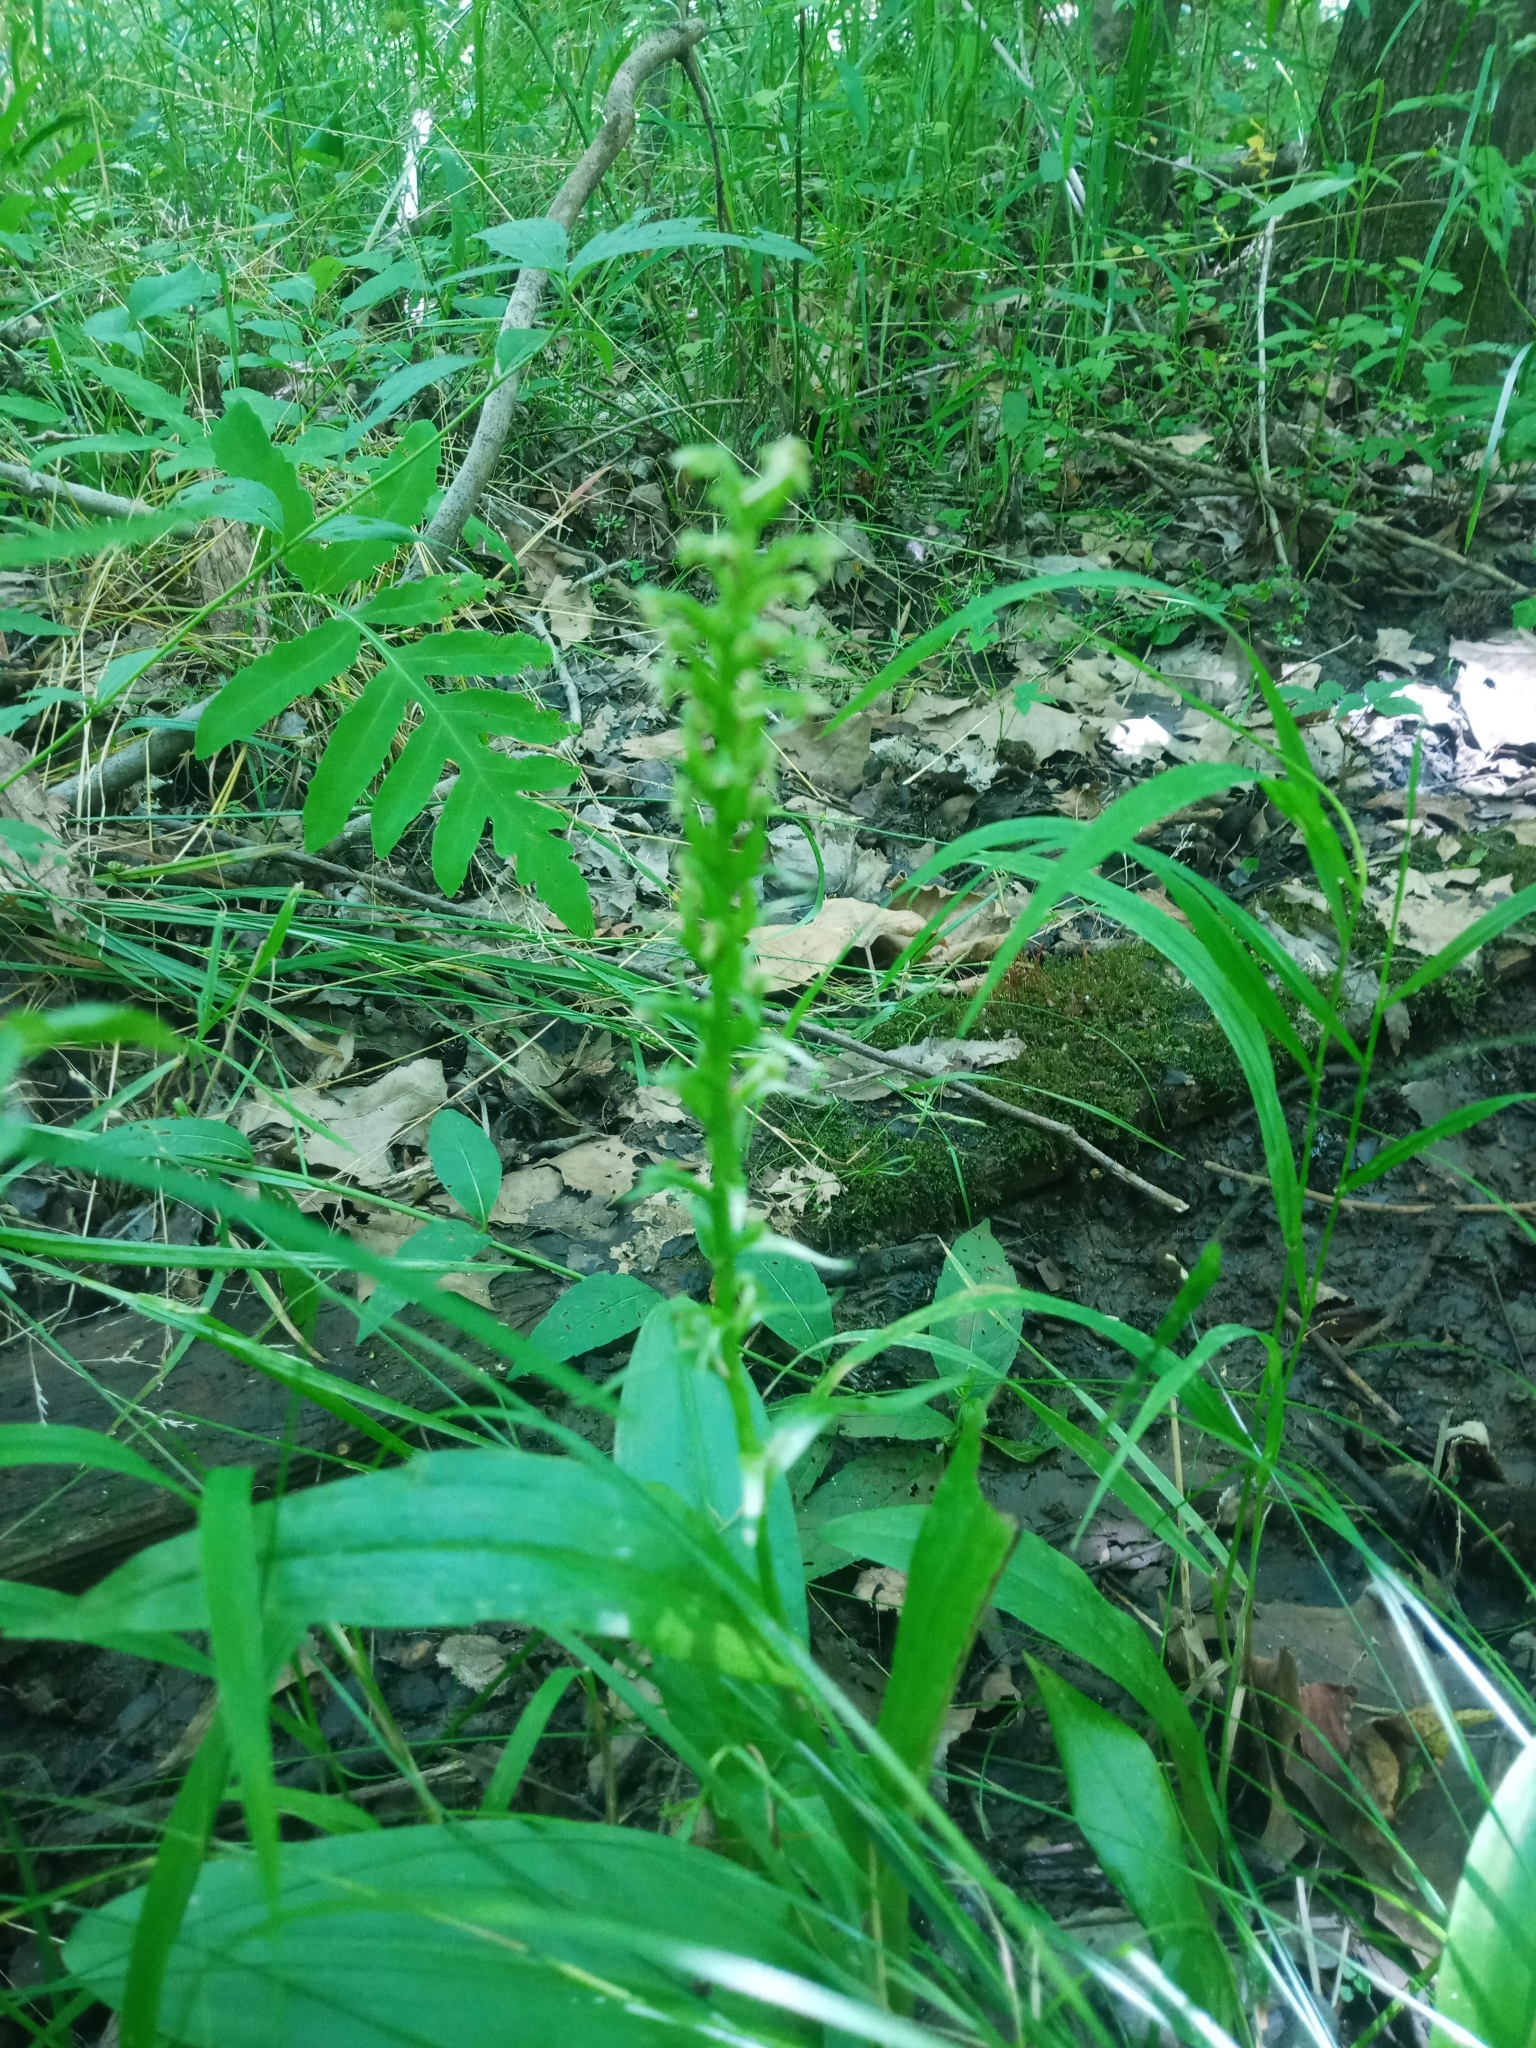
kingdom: Plantae
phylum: Tracheophyta
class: Liliopsida
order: Asparagales
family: Orchidaceae
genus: Platanthera
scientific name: Platanthera flava
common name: Gypsy-spikes
